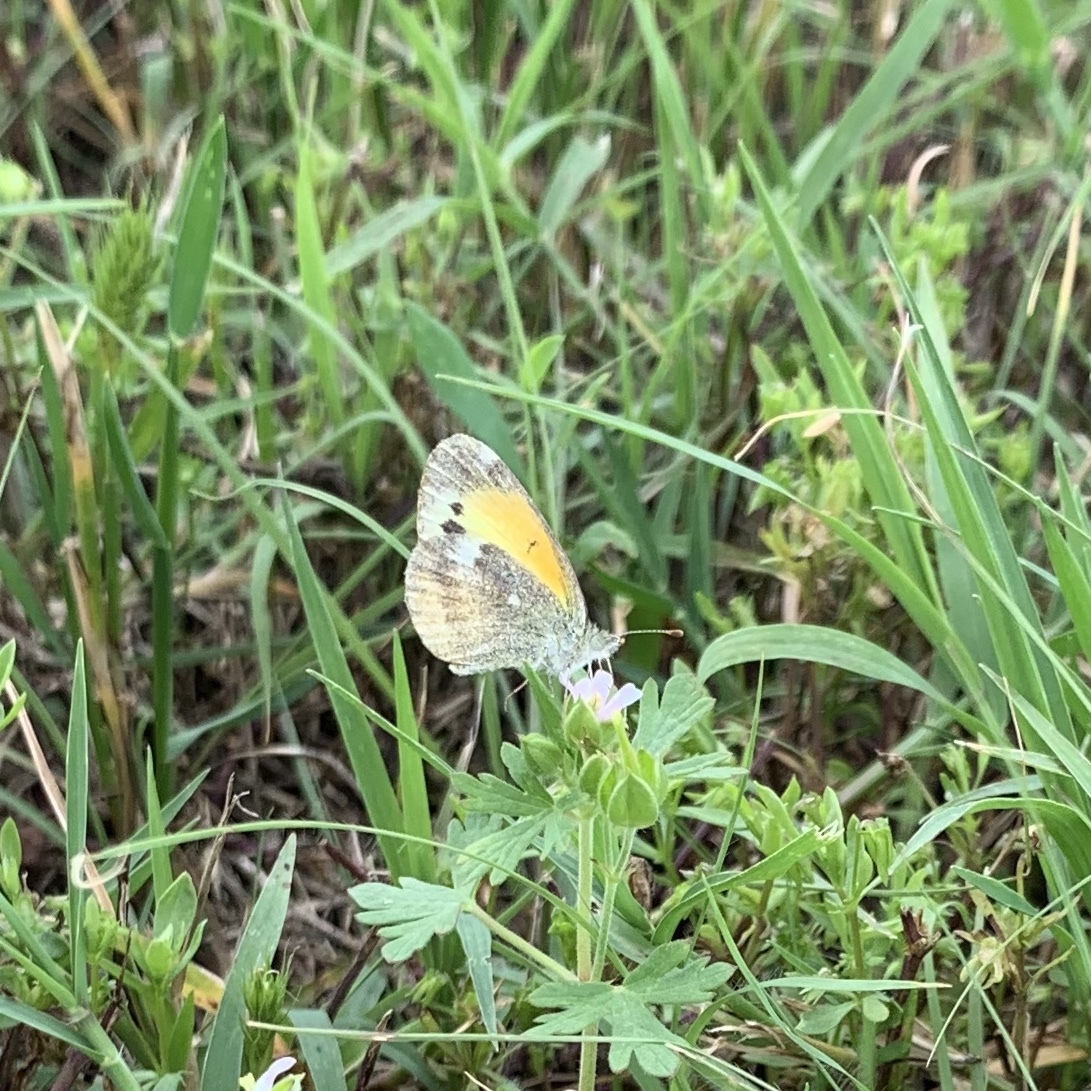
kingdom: Animalia
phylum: Arthropoda
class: Insecta
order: Lepidoptera
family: Pieridae
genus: Nathalis
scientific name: Nathalis iole
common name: Dainty sulphur
